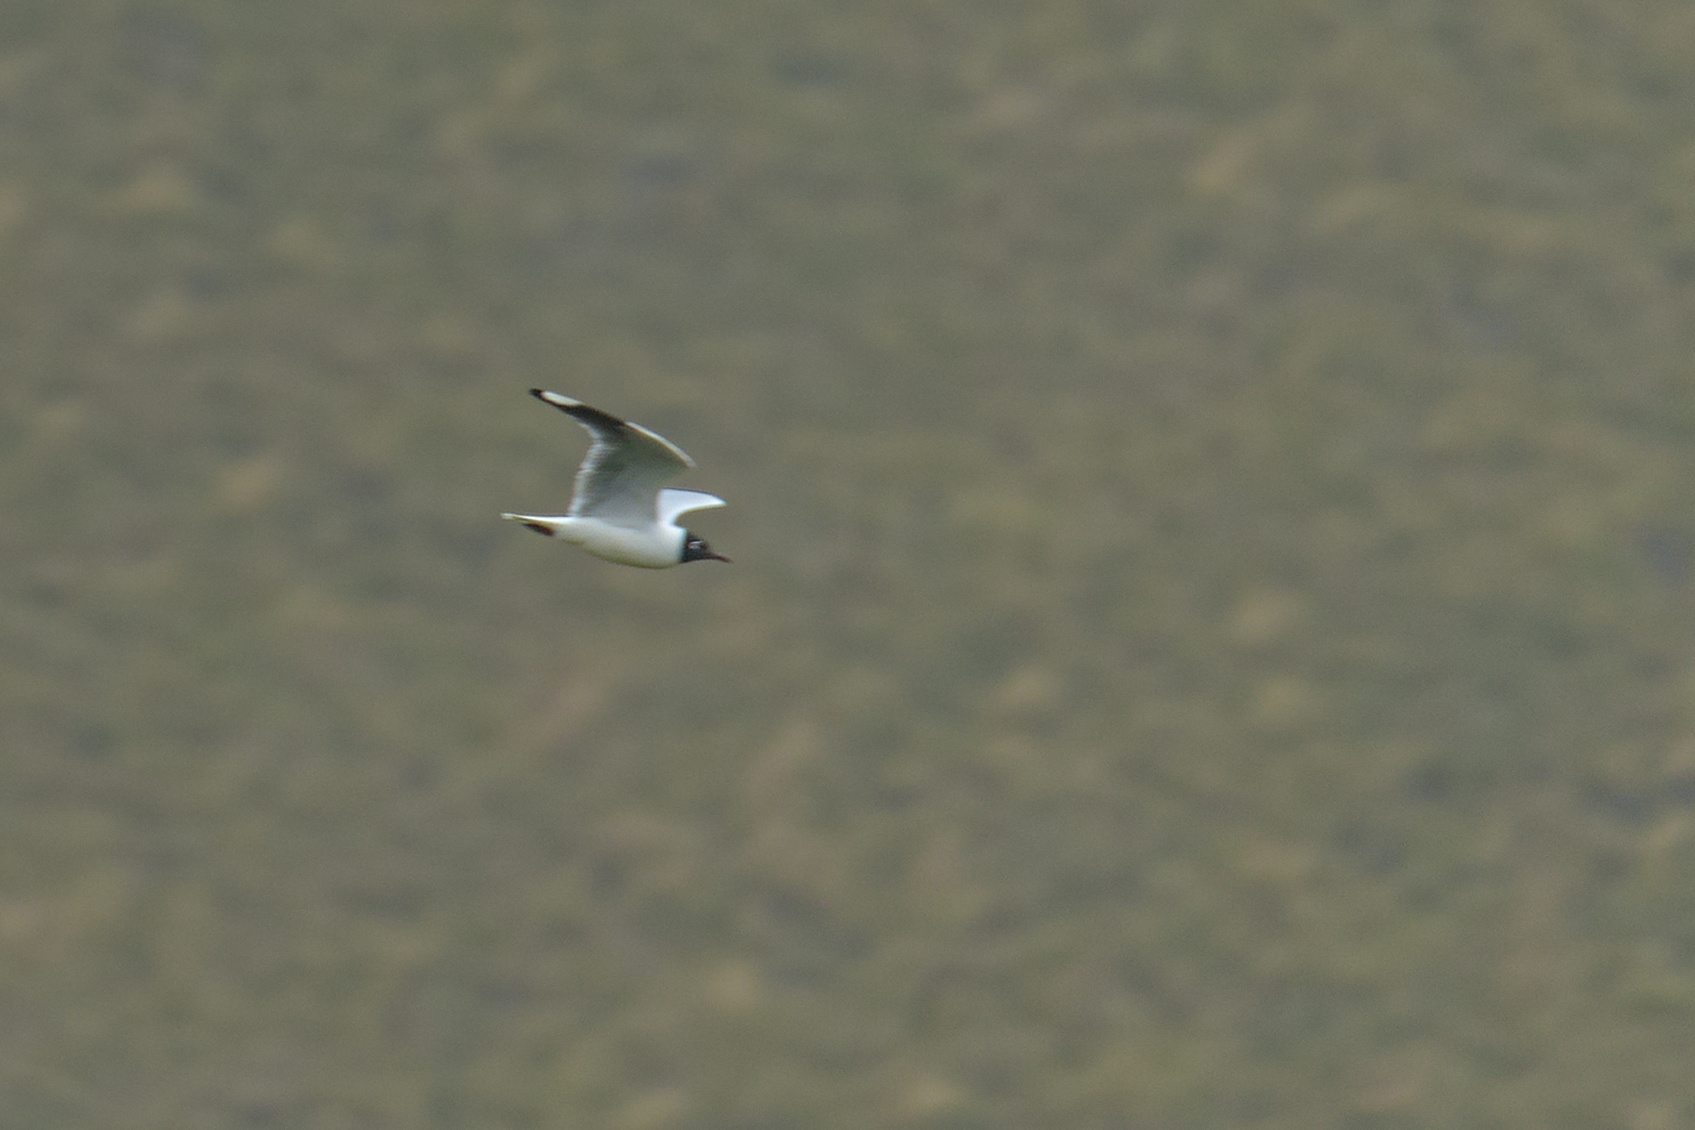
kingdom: Animalia
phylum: Chordata
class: Aves
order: Charadriiformes
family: Laridae
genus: Chroicocephalus
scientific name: Chroicocephalus serranus
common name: Andean gull
